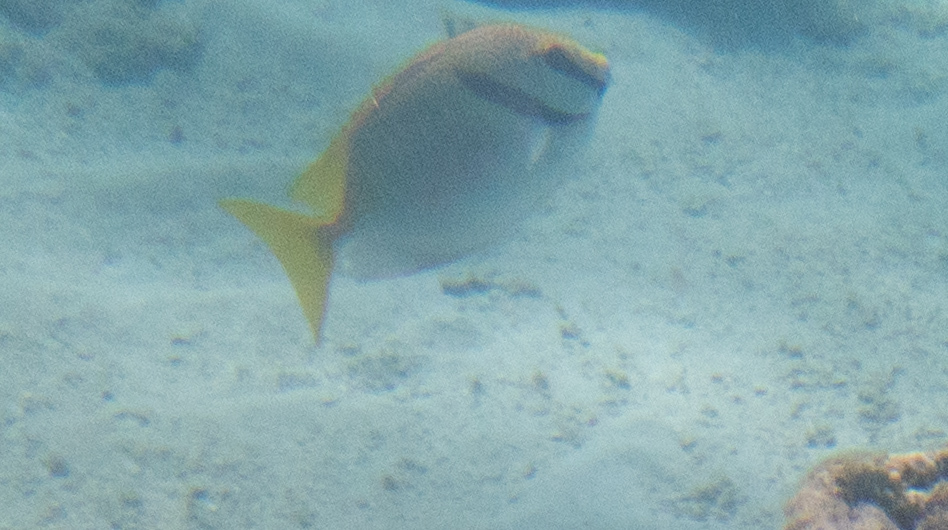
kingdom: Animalia
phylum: Chordata
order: Perciformes
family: Siganidae
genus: Siganus
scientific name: Siganus doliatus
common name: Barred spinefoot
